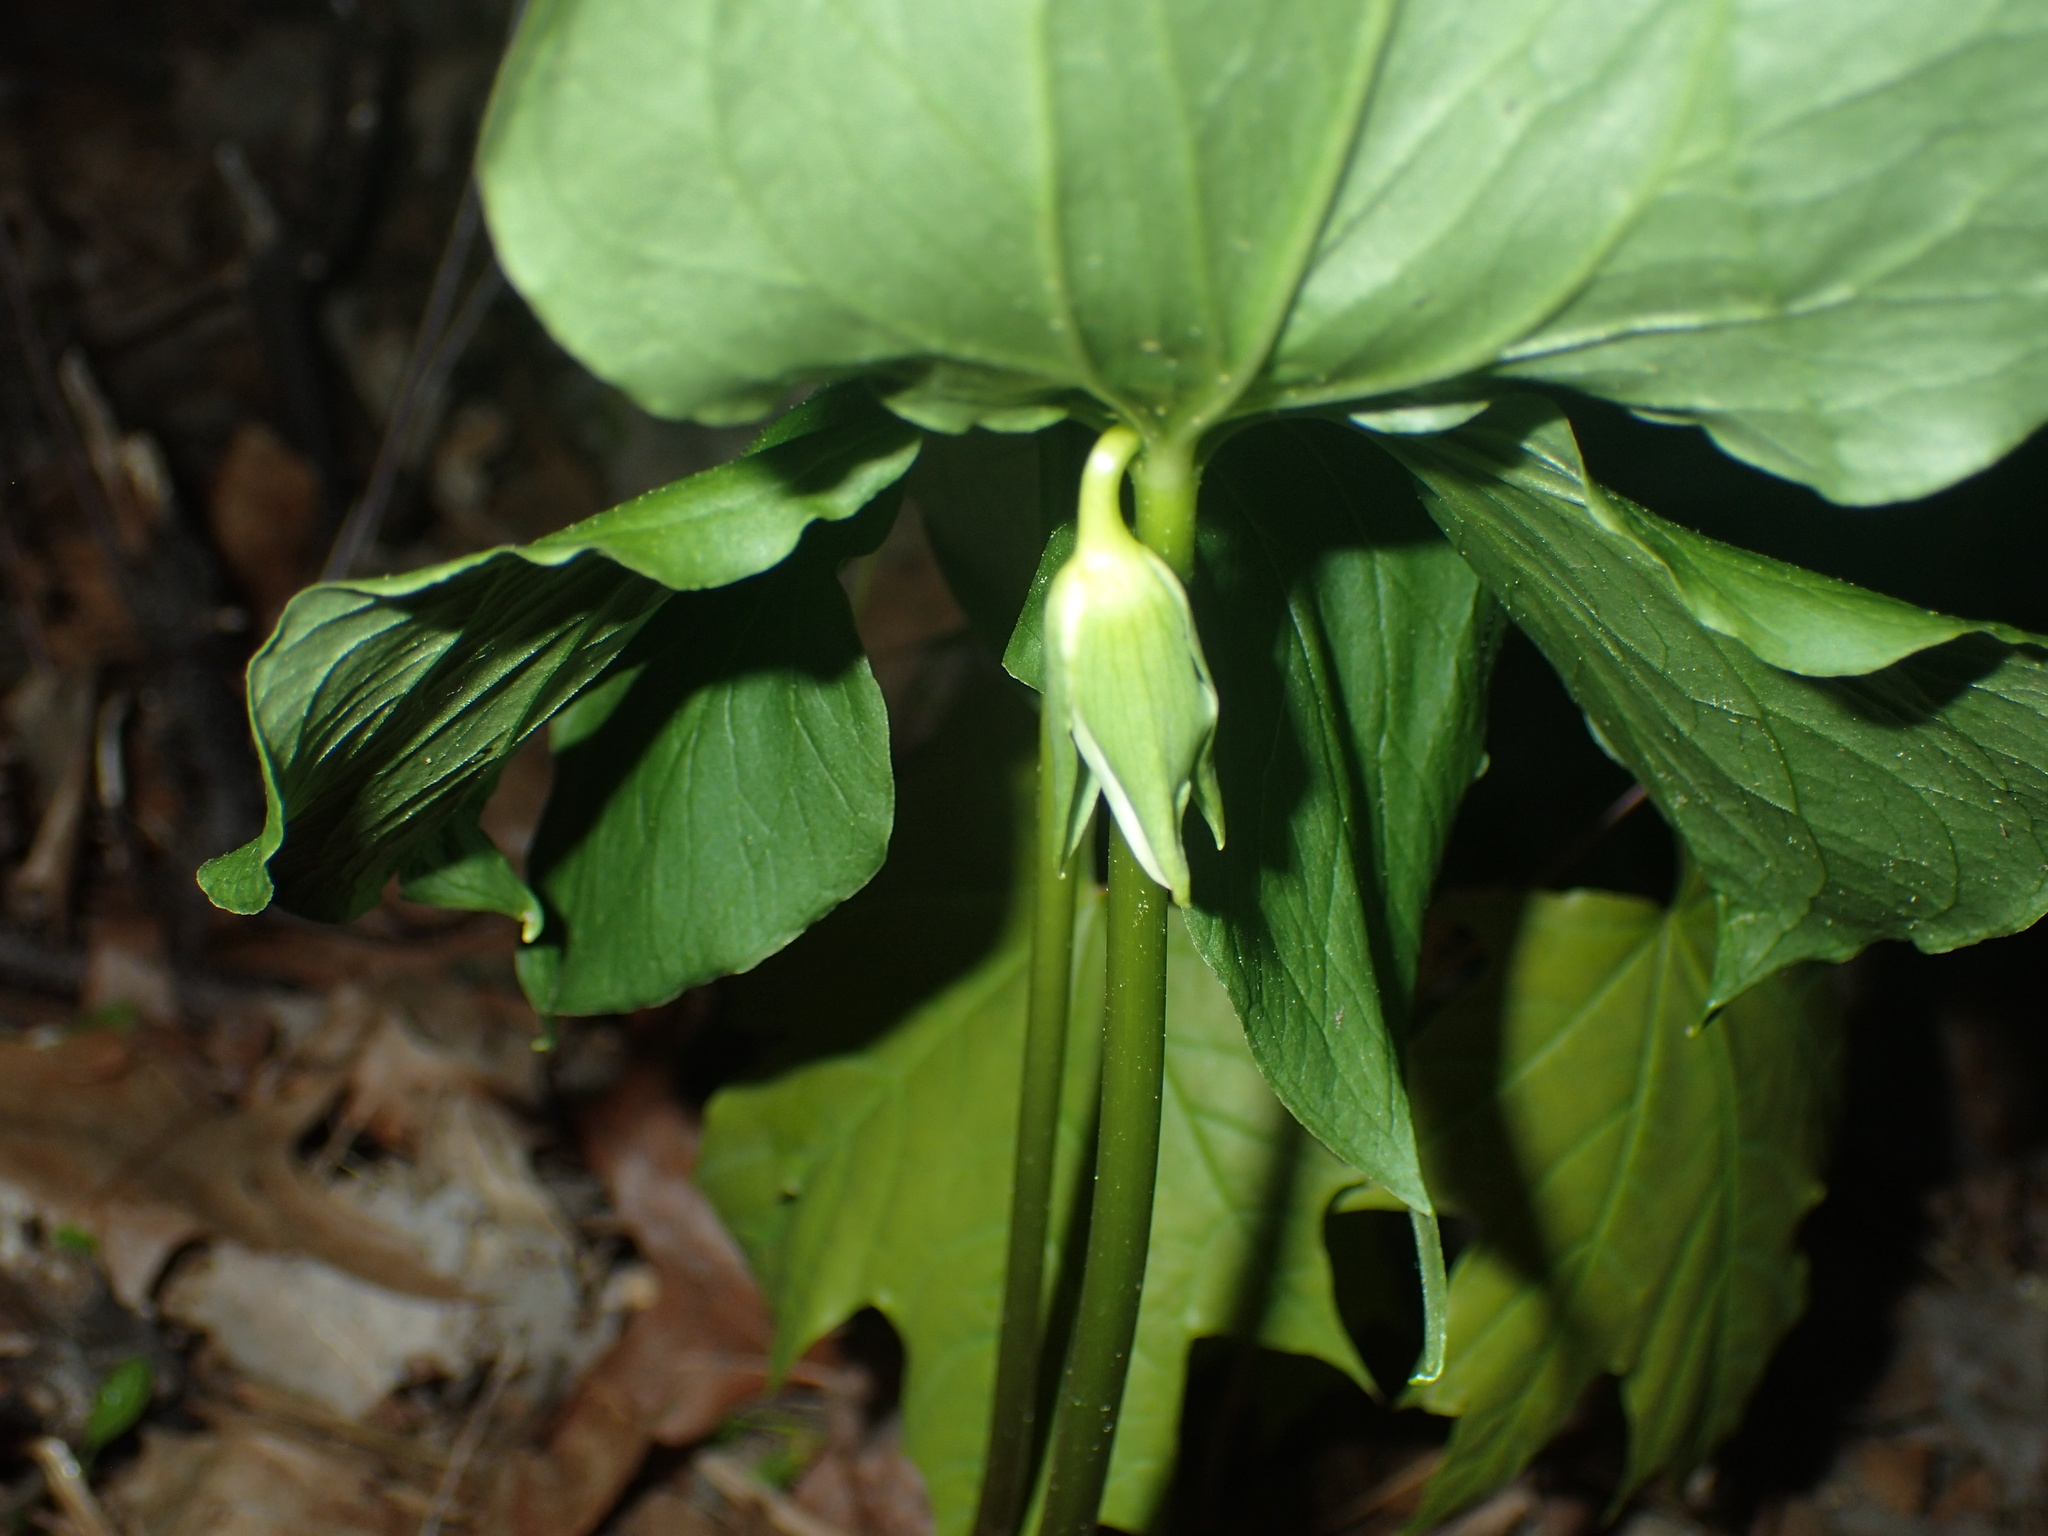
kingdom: Plantae
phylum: Tracheophyta
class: Liliopsida
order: Liliales
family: Melanthiaceae
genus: Trillium
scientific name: Trillium cernuum
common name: Nodding trillium
